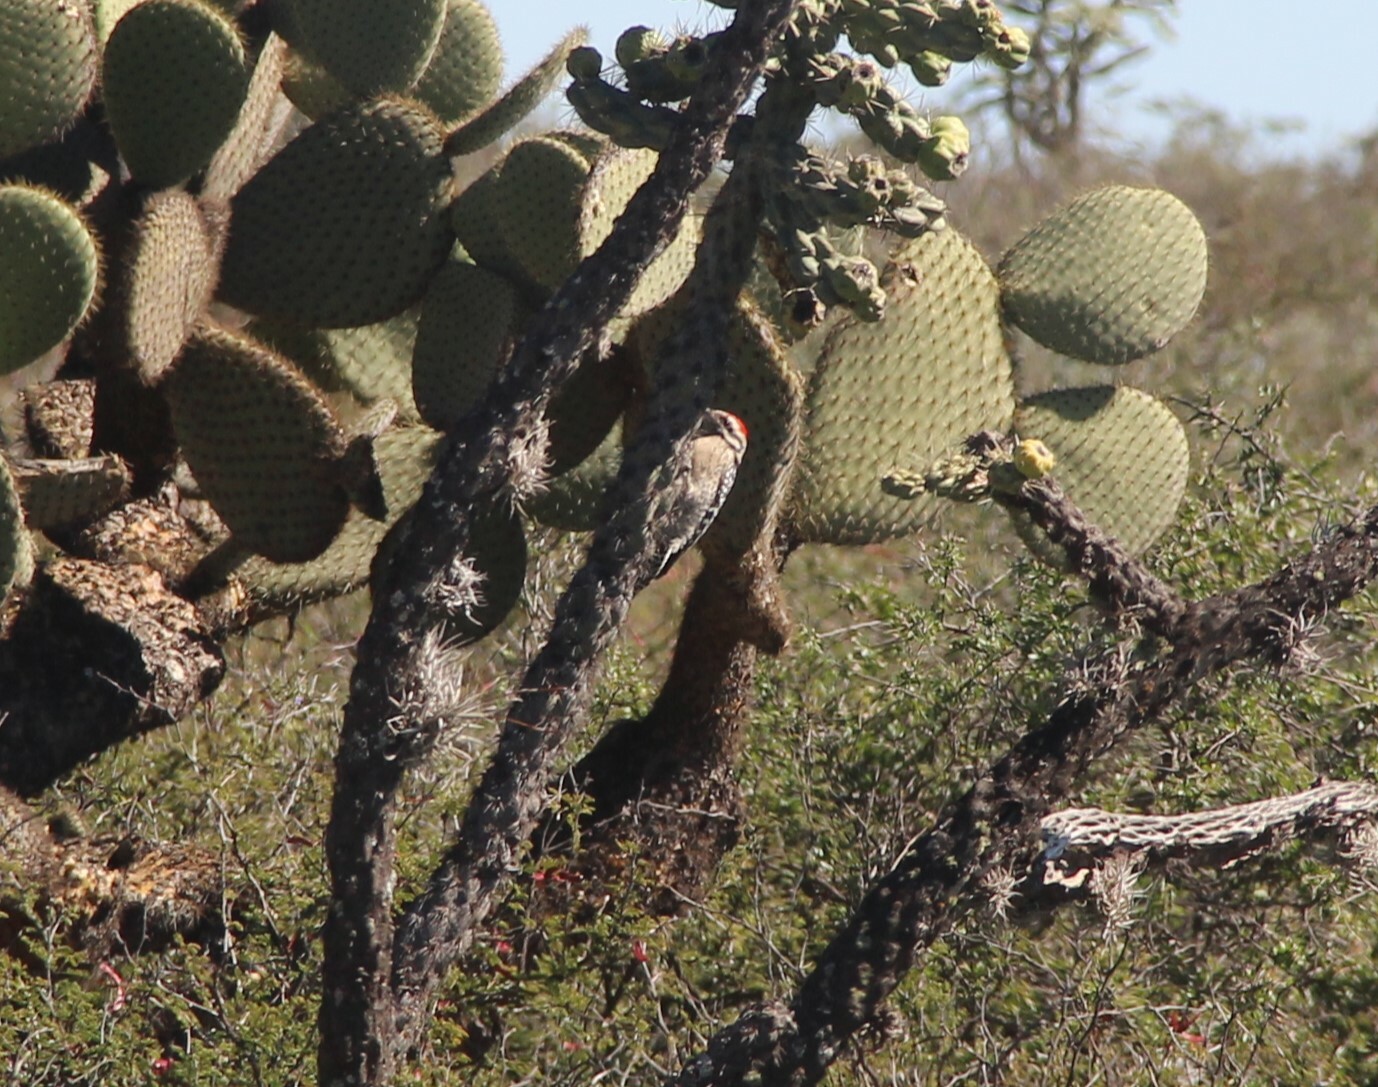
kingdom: Animalia
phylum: Chordata
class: Aves
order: Piciformes
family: Picidae
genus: Dryobates
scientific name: Dryobates scalaris
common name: Ladder-backed woodpecker
